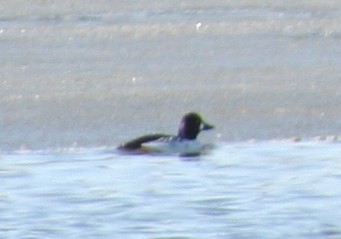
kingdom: Animalia
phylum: Chordata
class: Aves
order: Anseriformes
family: Anatidae
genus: Bucephala
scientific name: Bucephala clangula
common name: Common goldeneye
